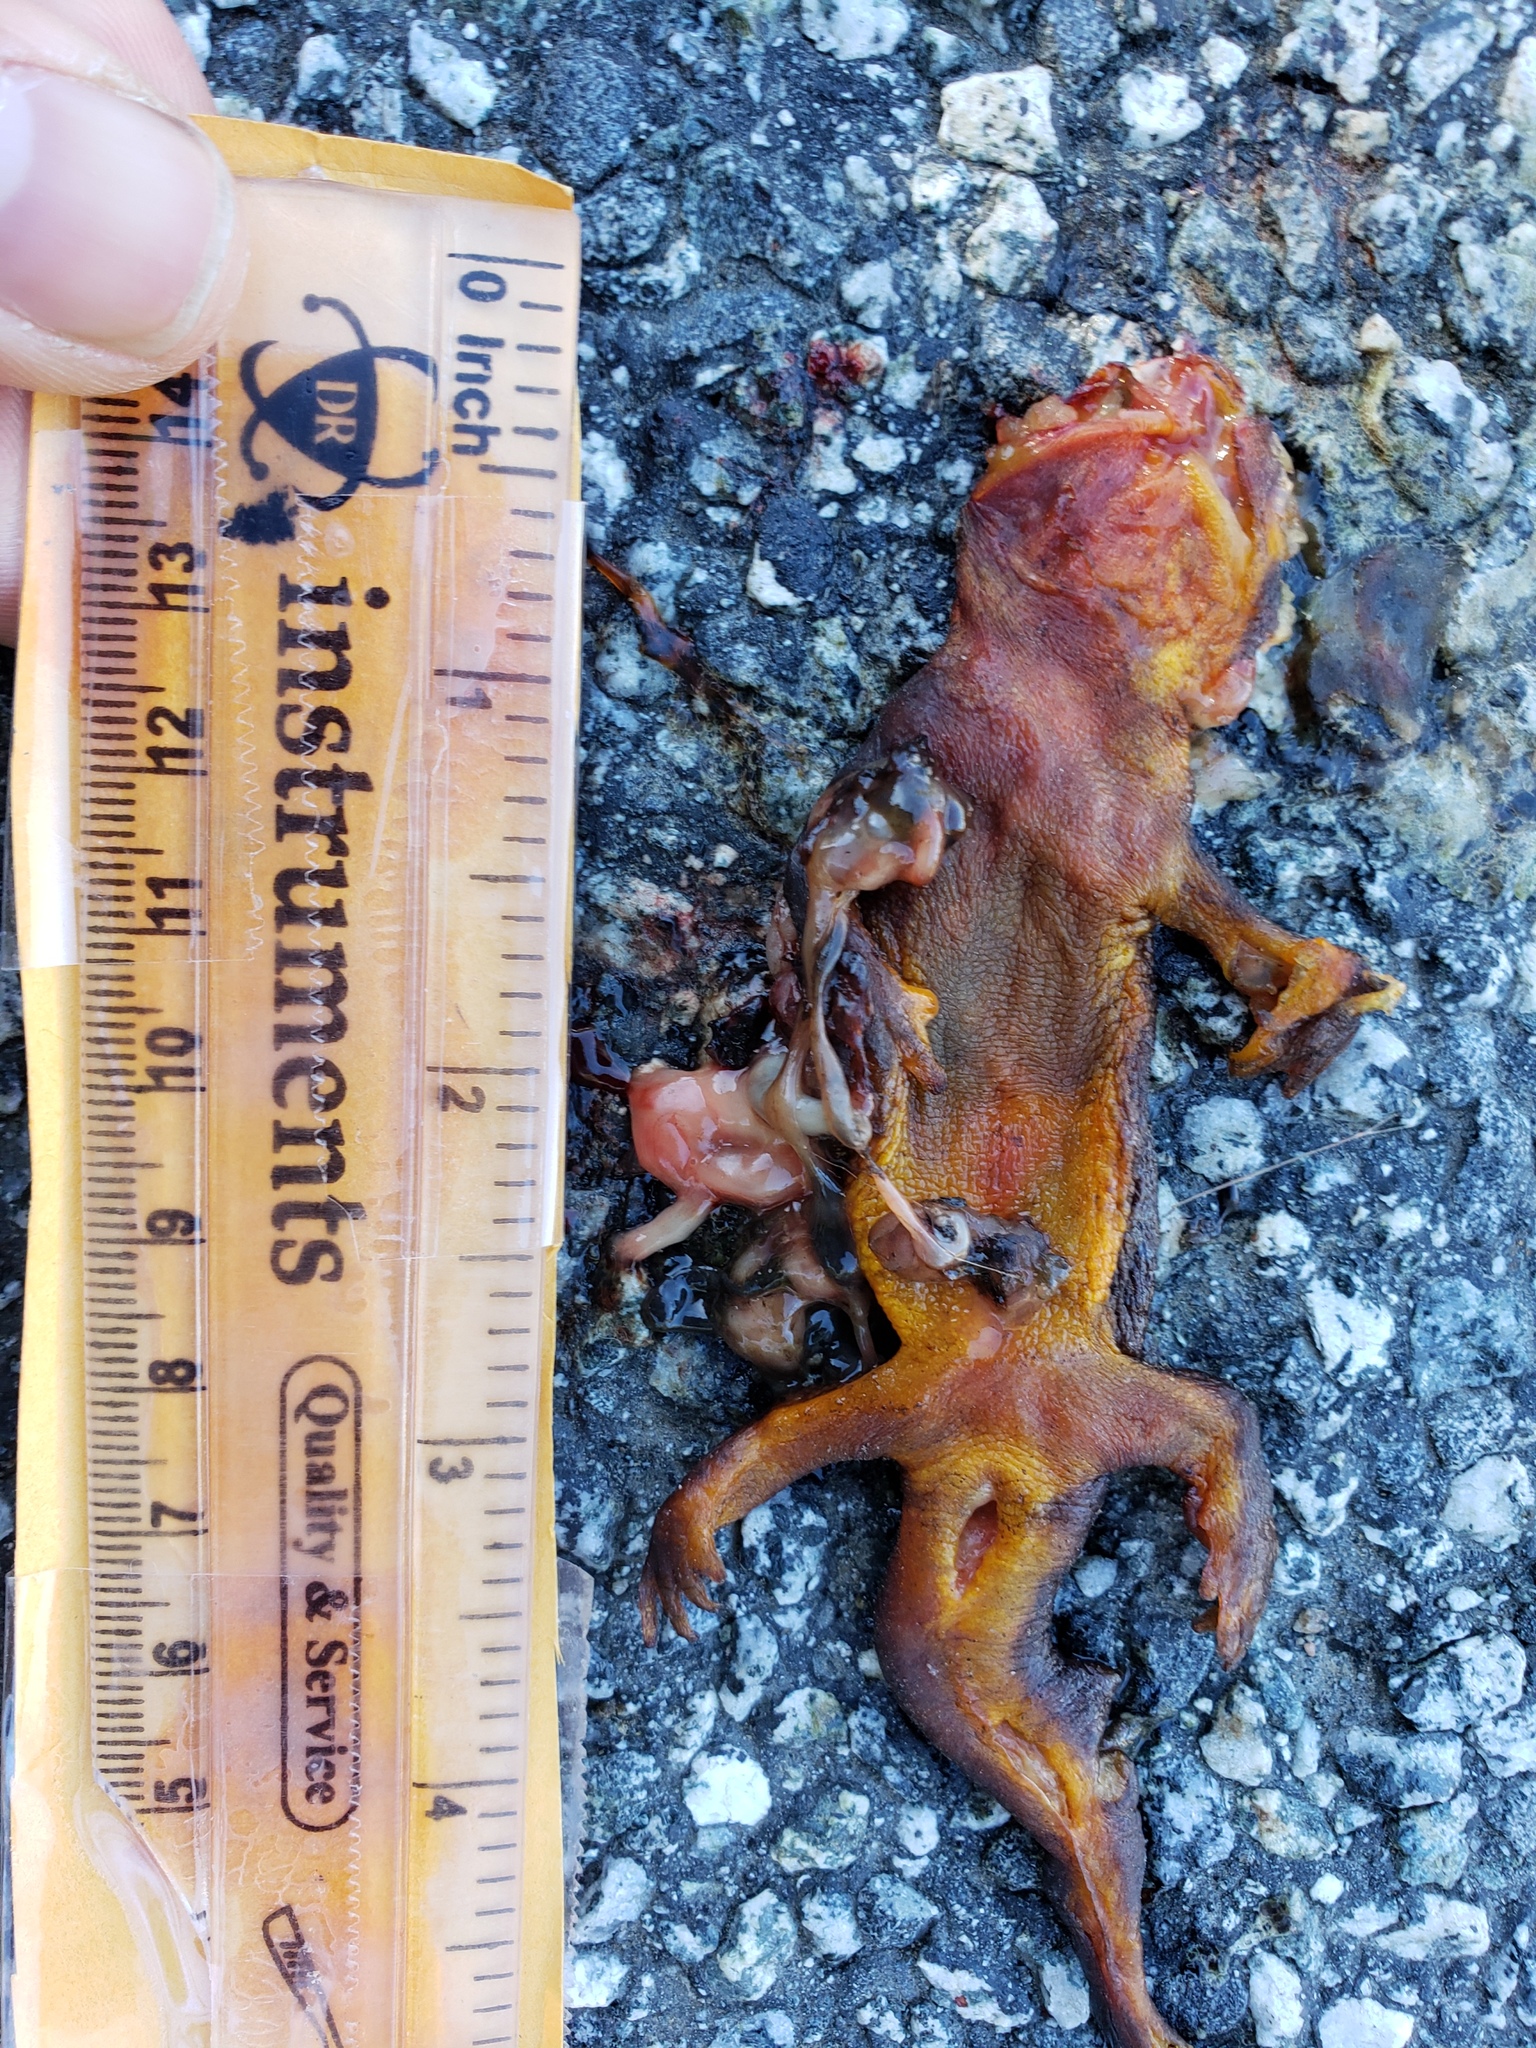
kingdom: Animalia
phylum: Chordata
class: Amphibia
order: Caudata
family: Salamandridae
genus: Taricha
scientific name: Taricha
